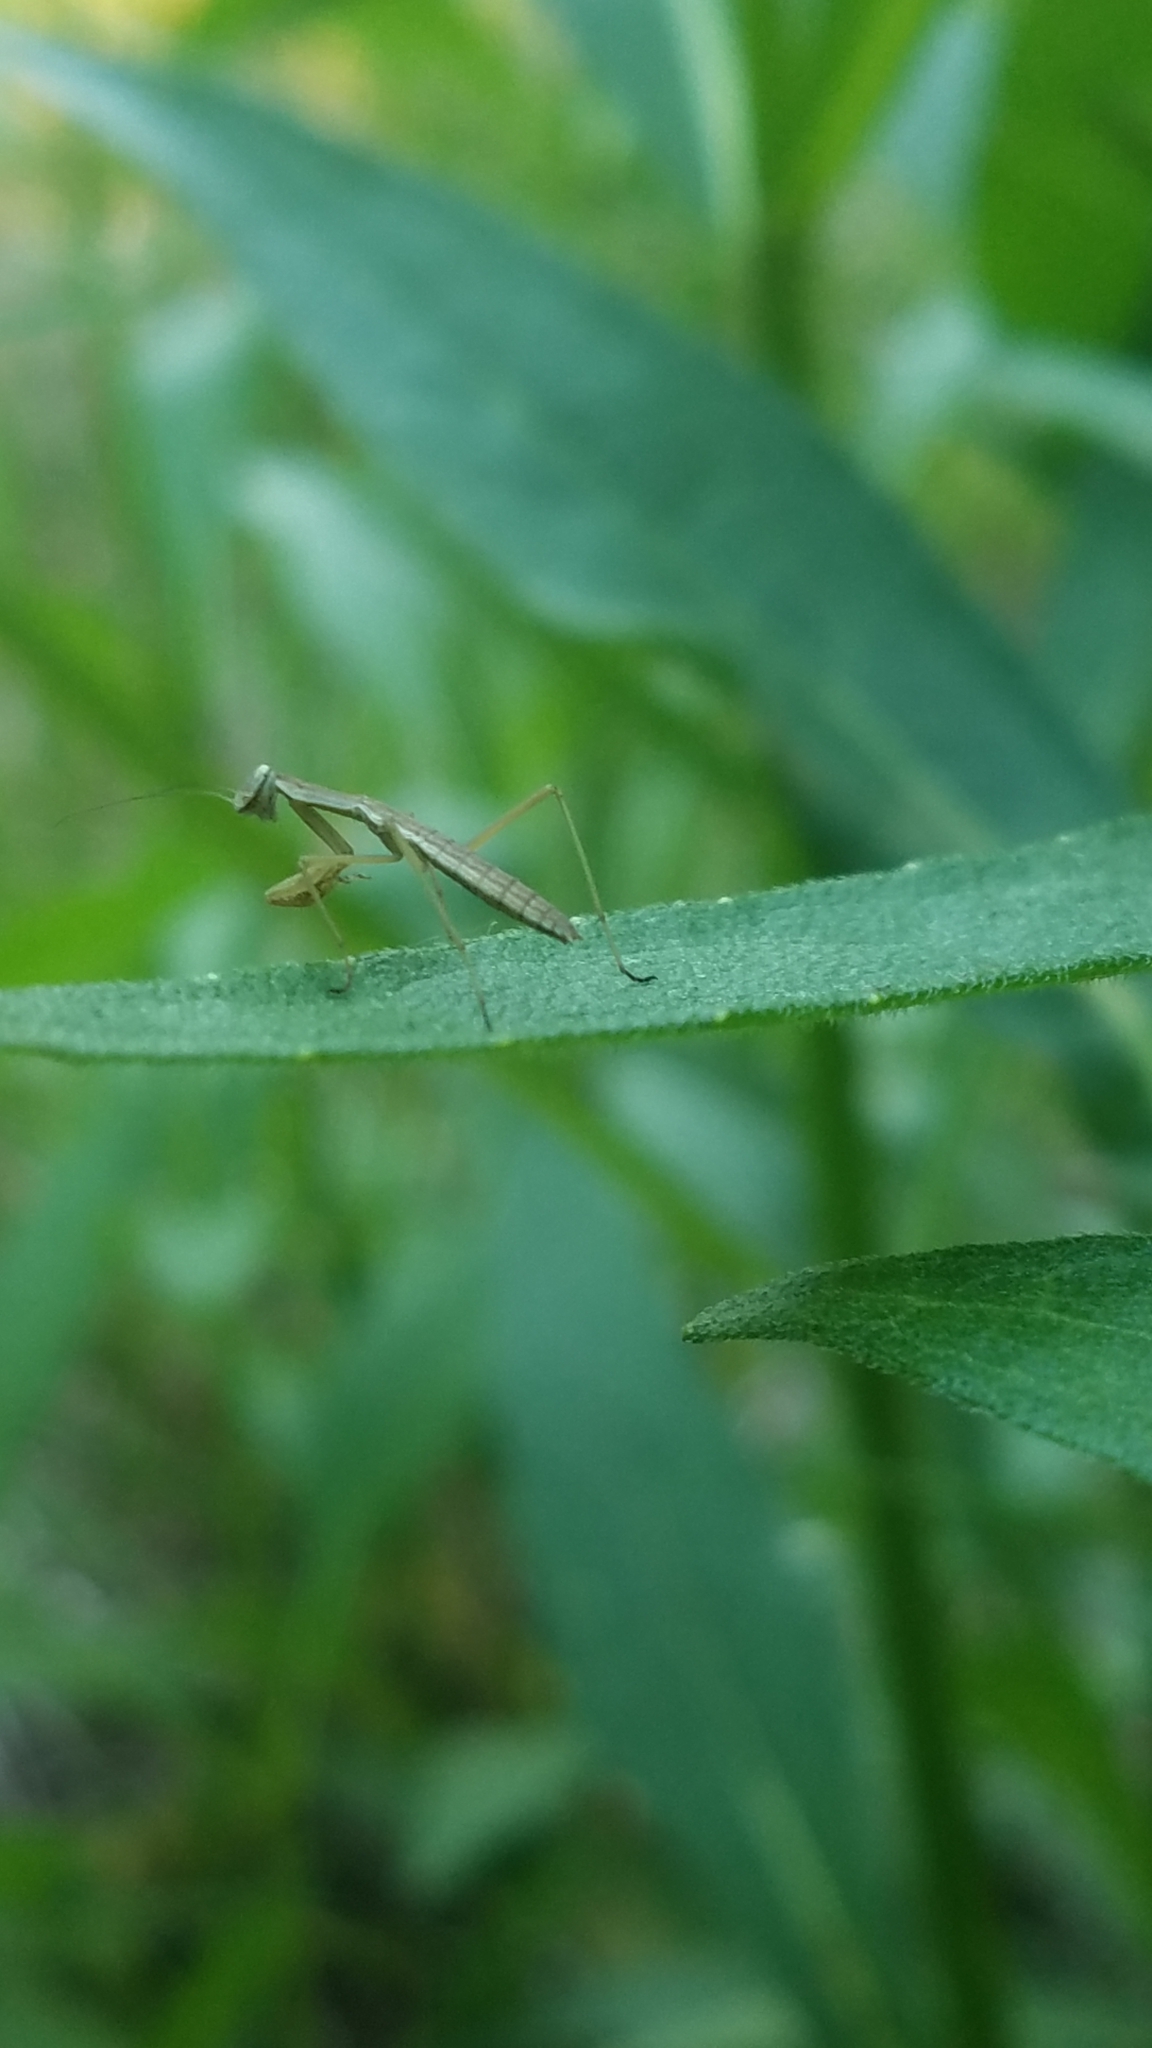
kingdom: Animalia
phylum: Arthropoda
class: Insecta
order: Mantodea
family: Mantidae
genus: Tenodera
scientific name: Tenodera sinensis
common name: Chinese mantis
